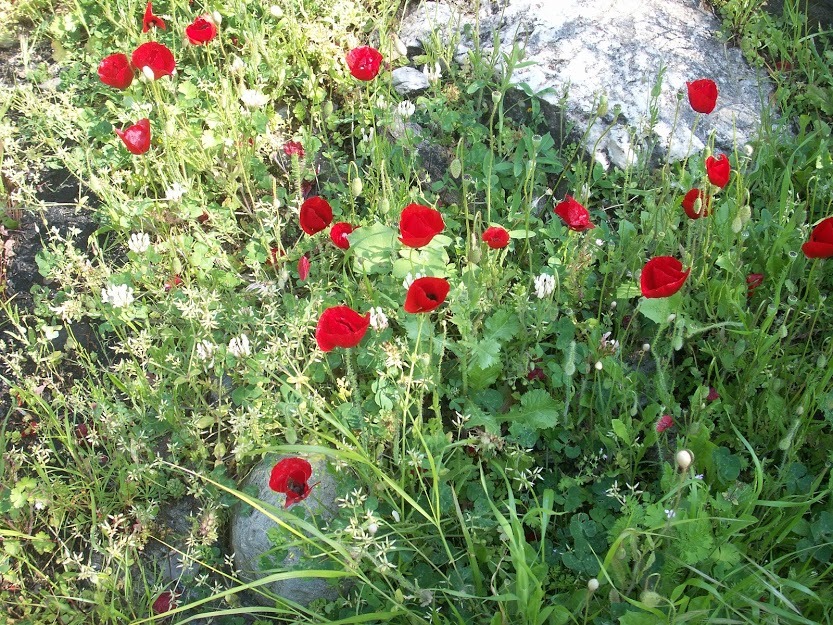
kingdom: Plantae
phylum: Tracheophyta
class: Magnoliopsida
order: Ranunculales
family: Papaveraceae
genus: Papaver
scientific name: Papaver rhoeas
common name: Corn poppy
